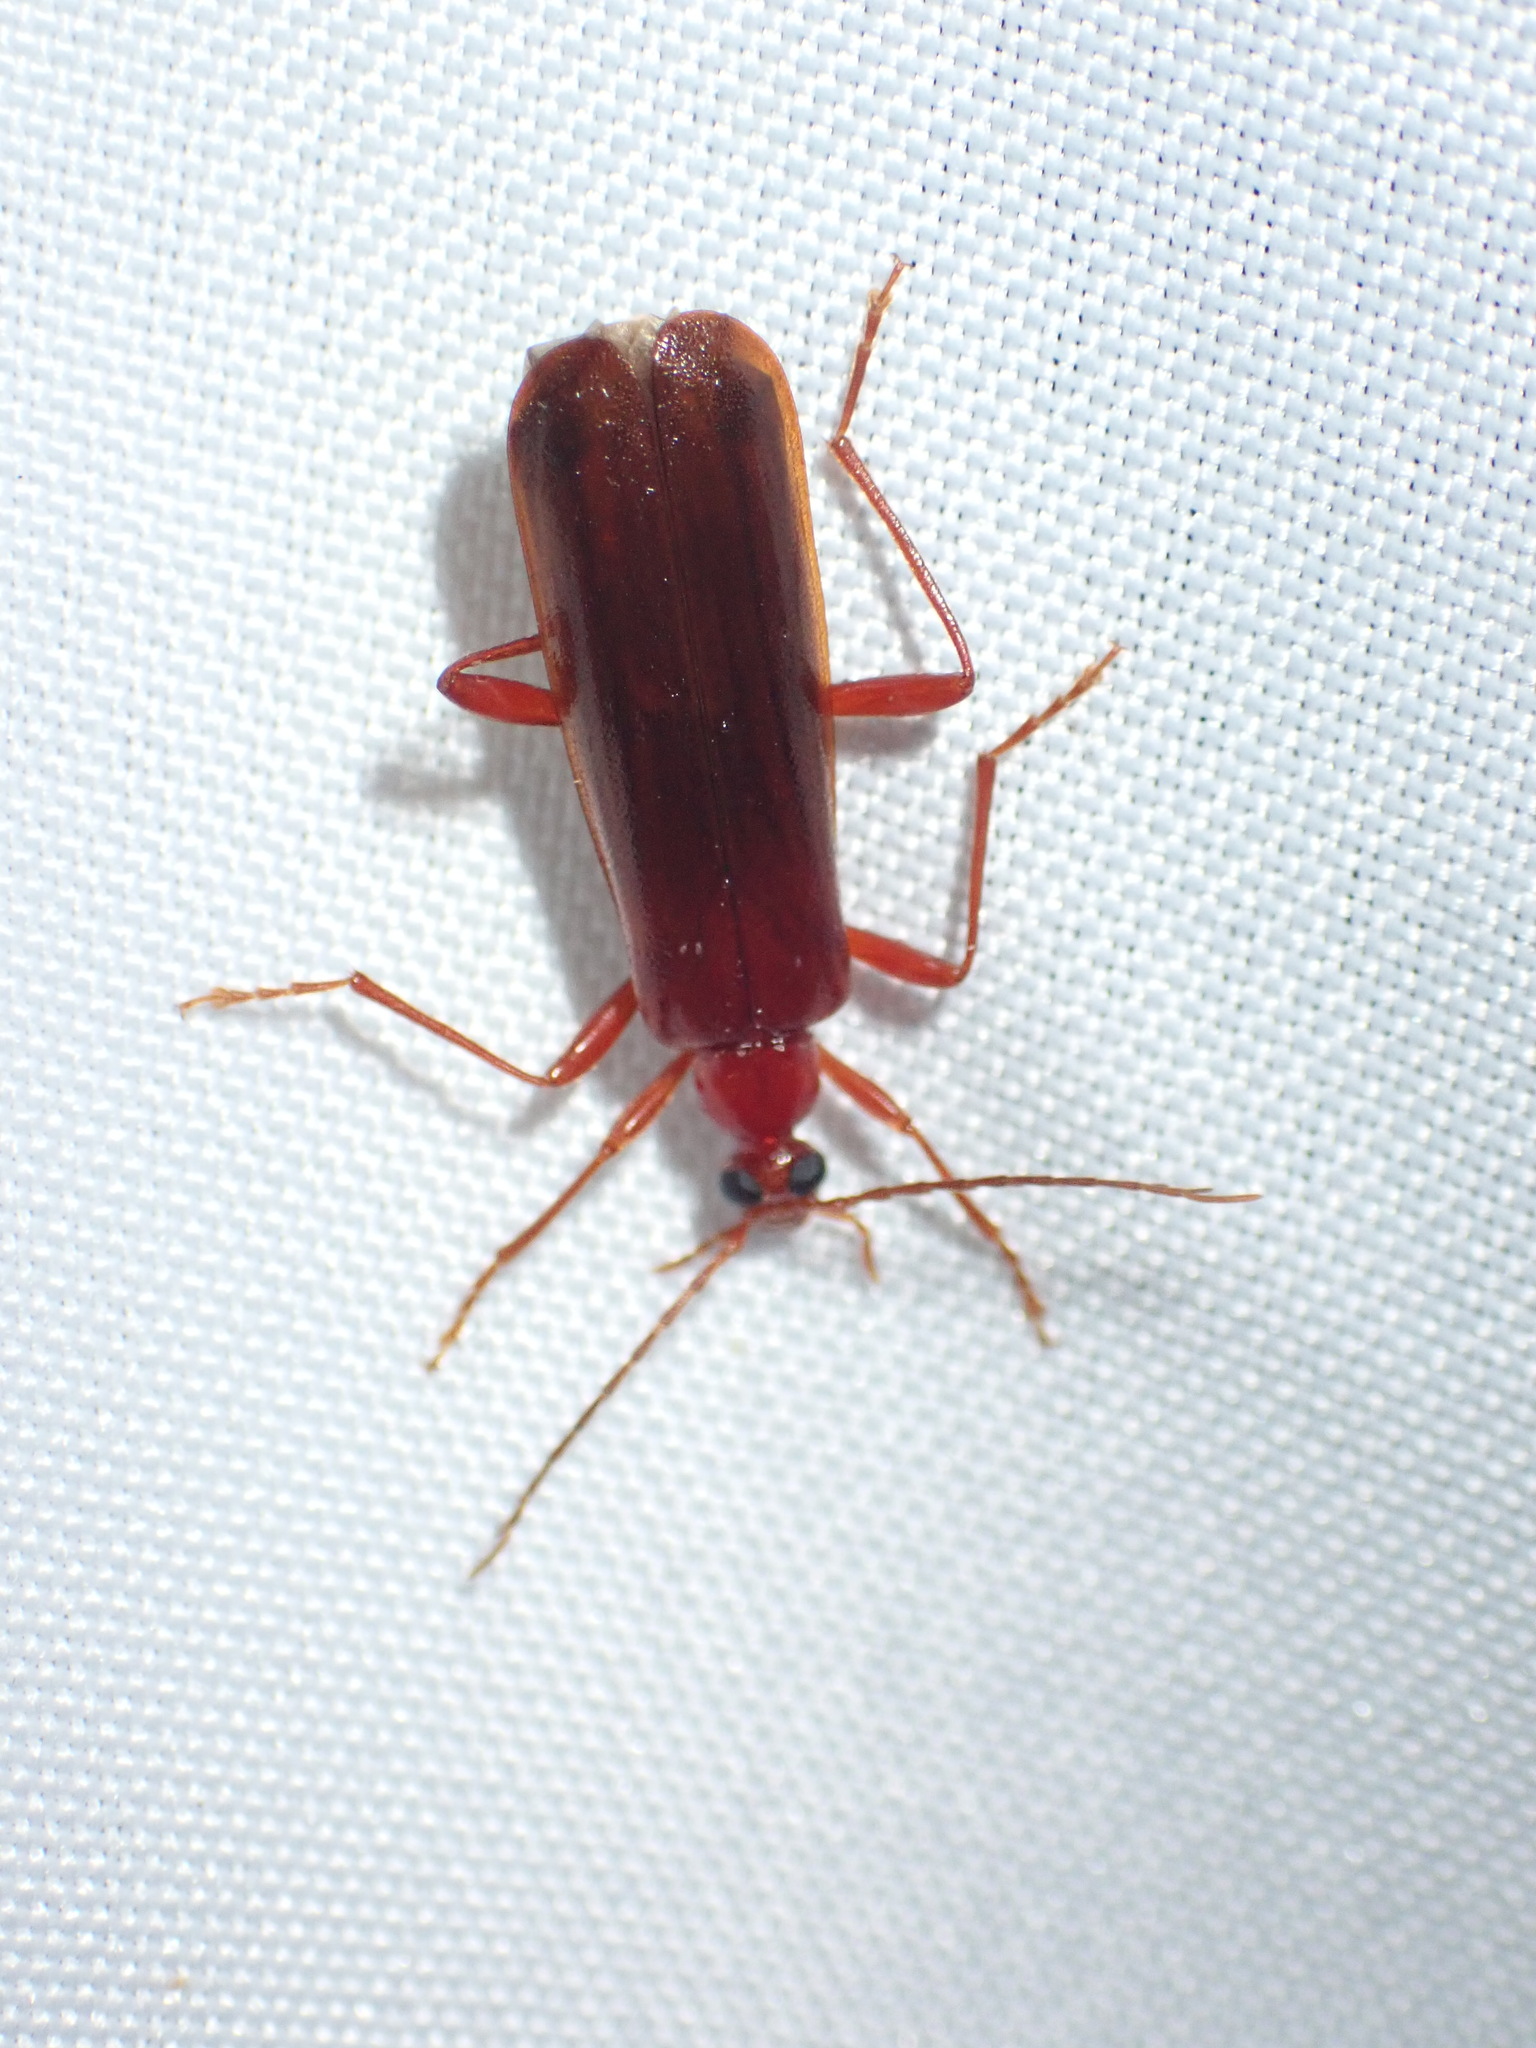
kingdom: Animalia
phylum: Arthropoda
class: Insecta
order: Coleoptera
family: Pyrochroidae
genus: Dendroides
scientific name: Dendroides ephemeroides
